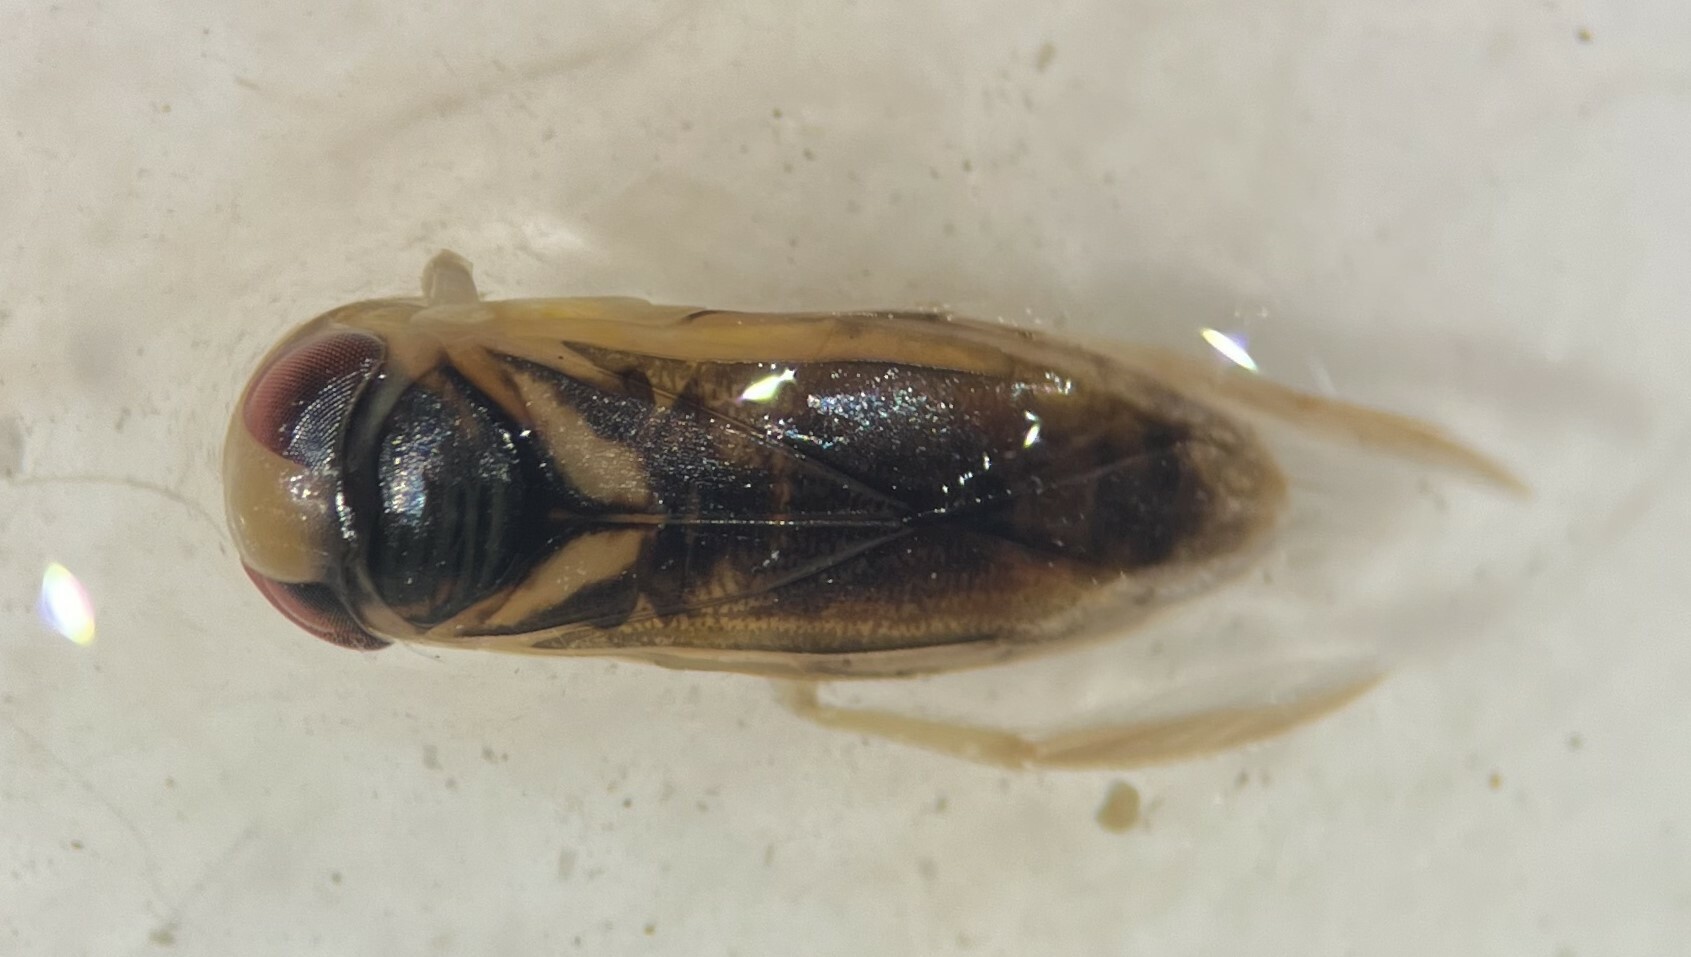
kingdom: Animalia
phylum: Arthropoda
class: Insecta
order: Hemiptera
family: Corixidae
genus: Ramphocorixa
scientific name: Ramphocorixa acuminata
